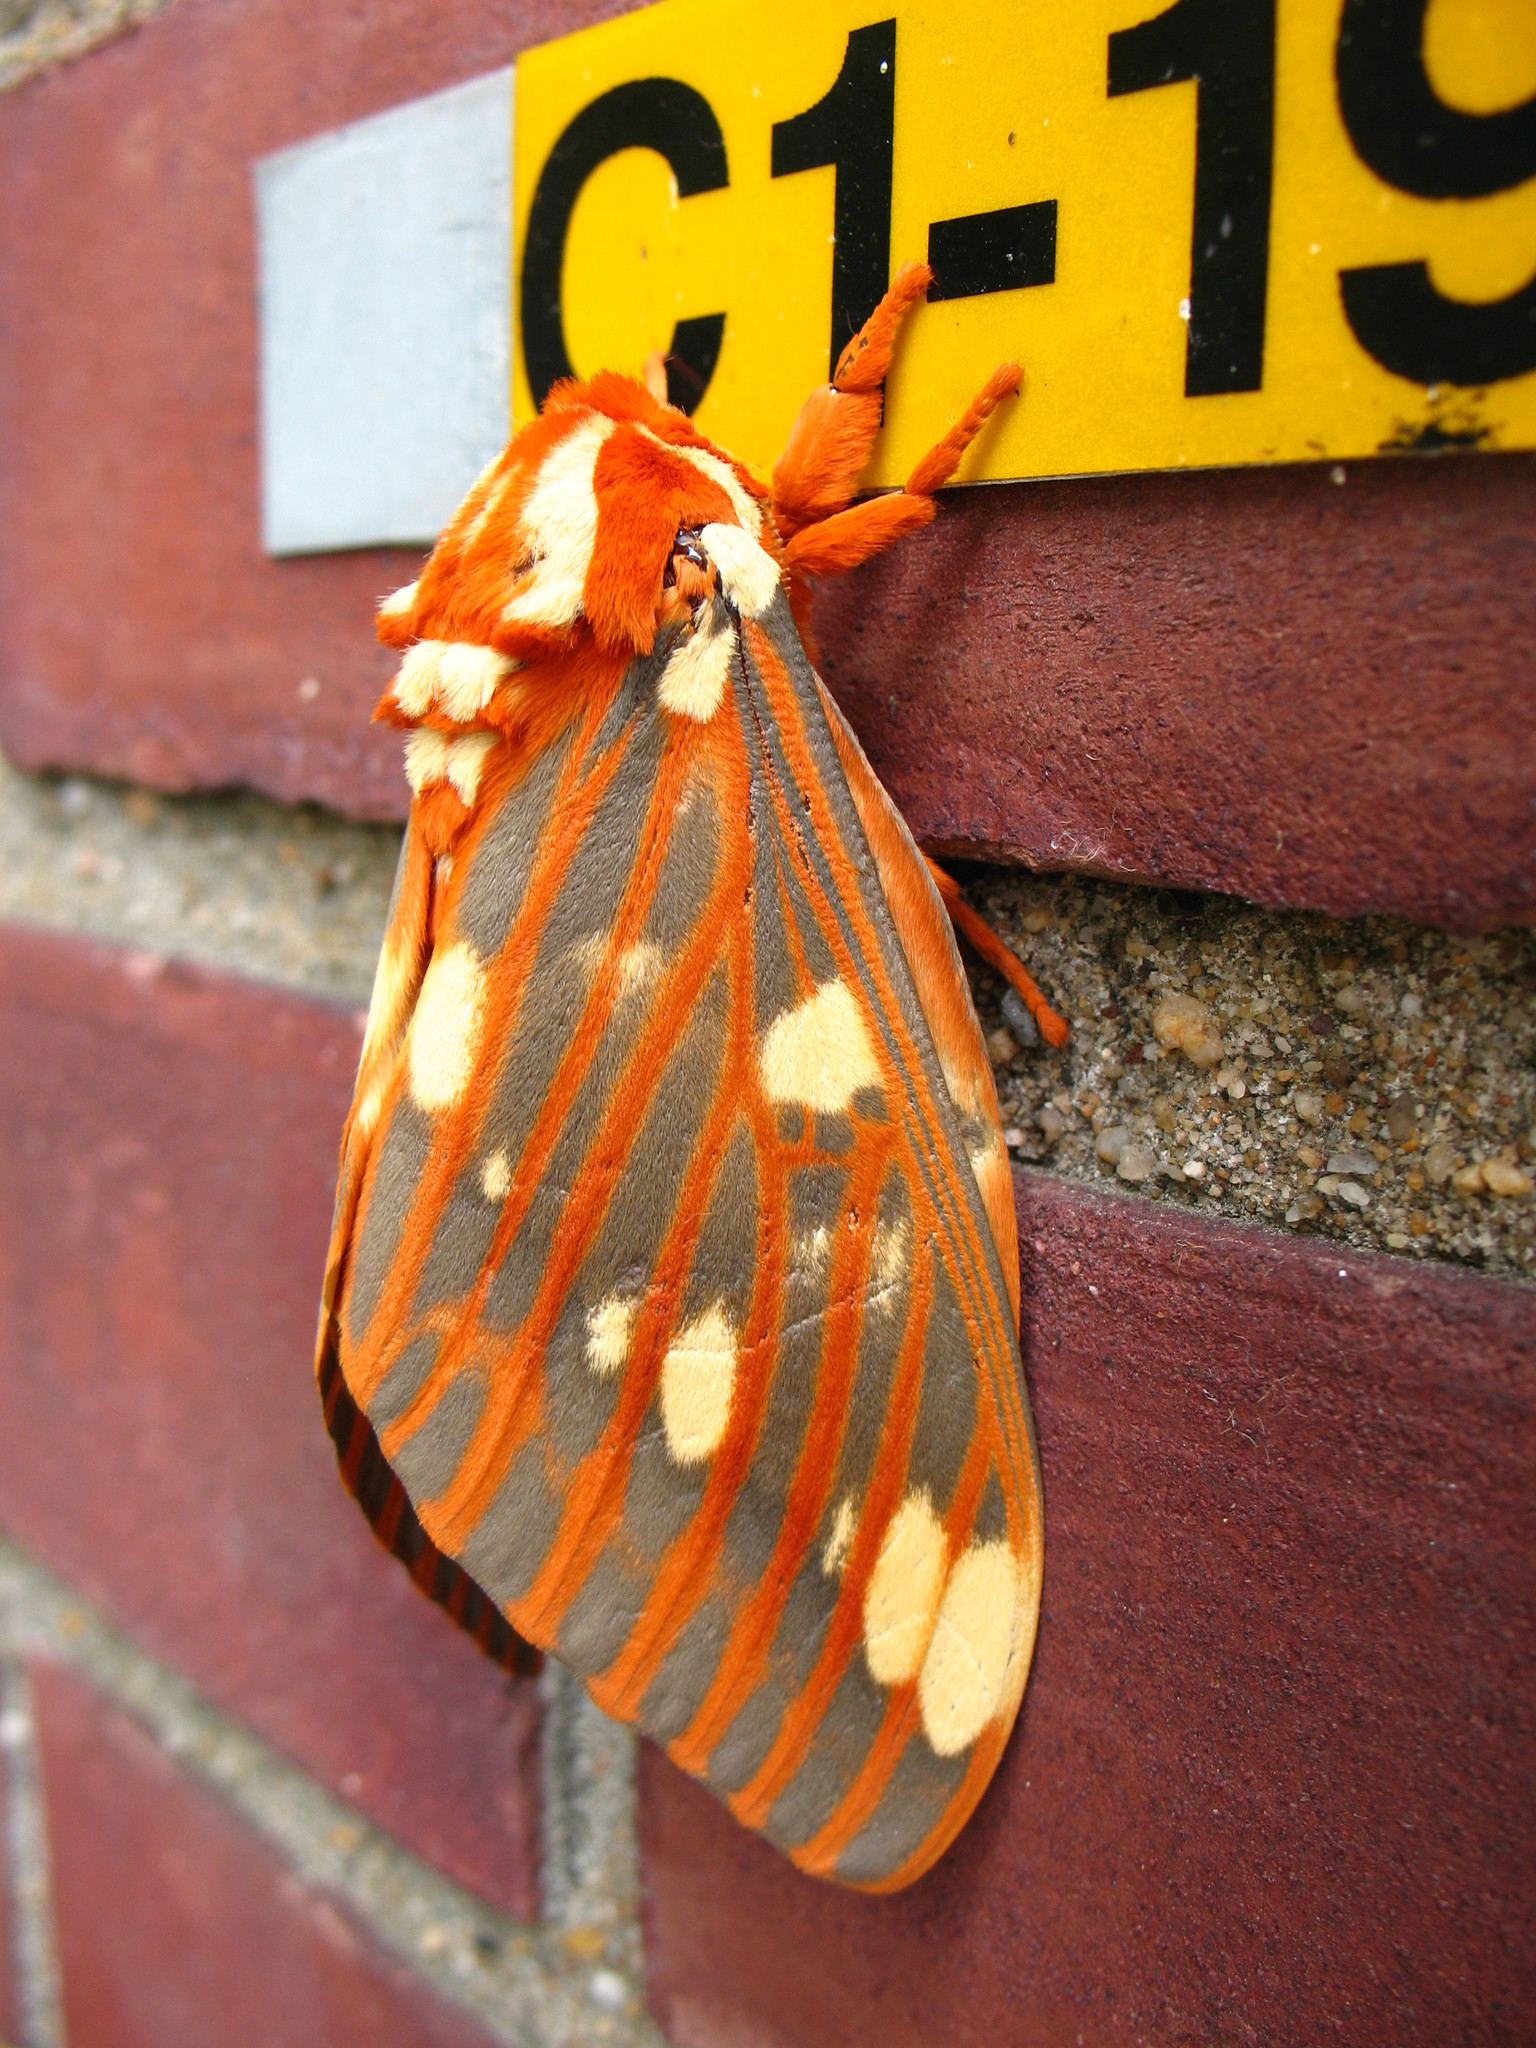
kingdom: Animalia
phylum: Arthropoda
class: Insecta
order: Lepidoptera
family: Saturniidae
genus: Citheronia
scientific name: Citheronia regalis
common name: Hickory horned devil
